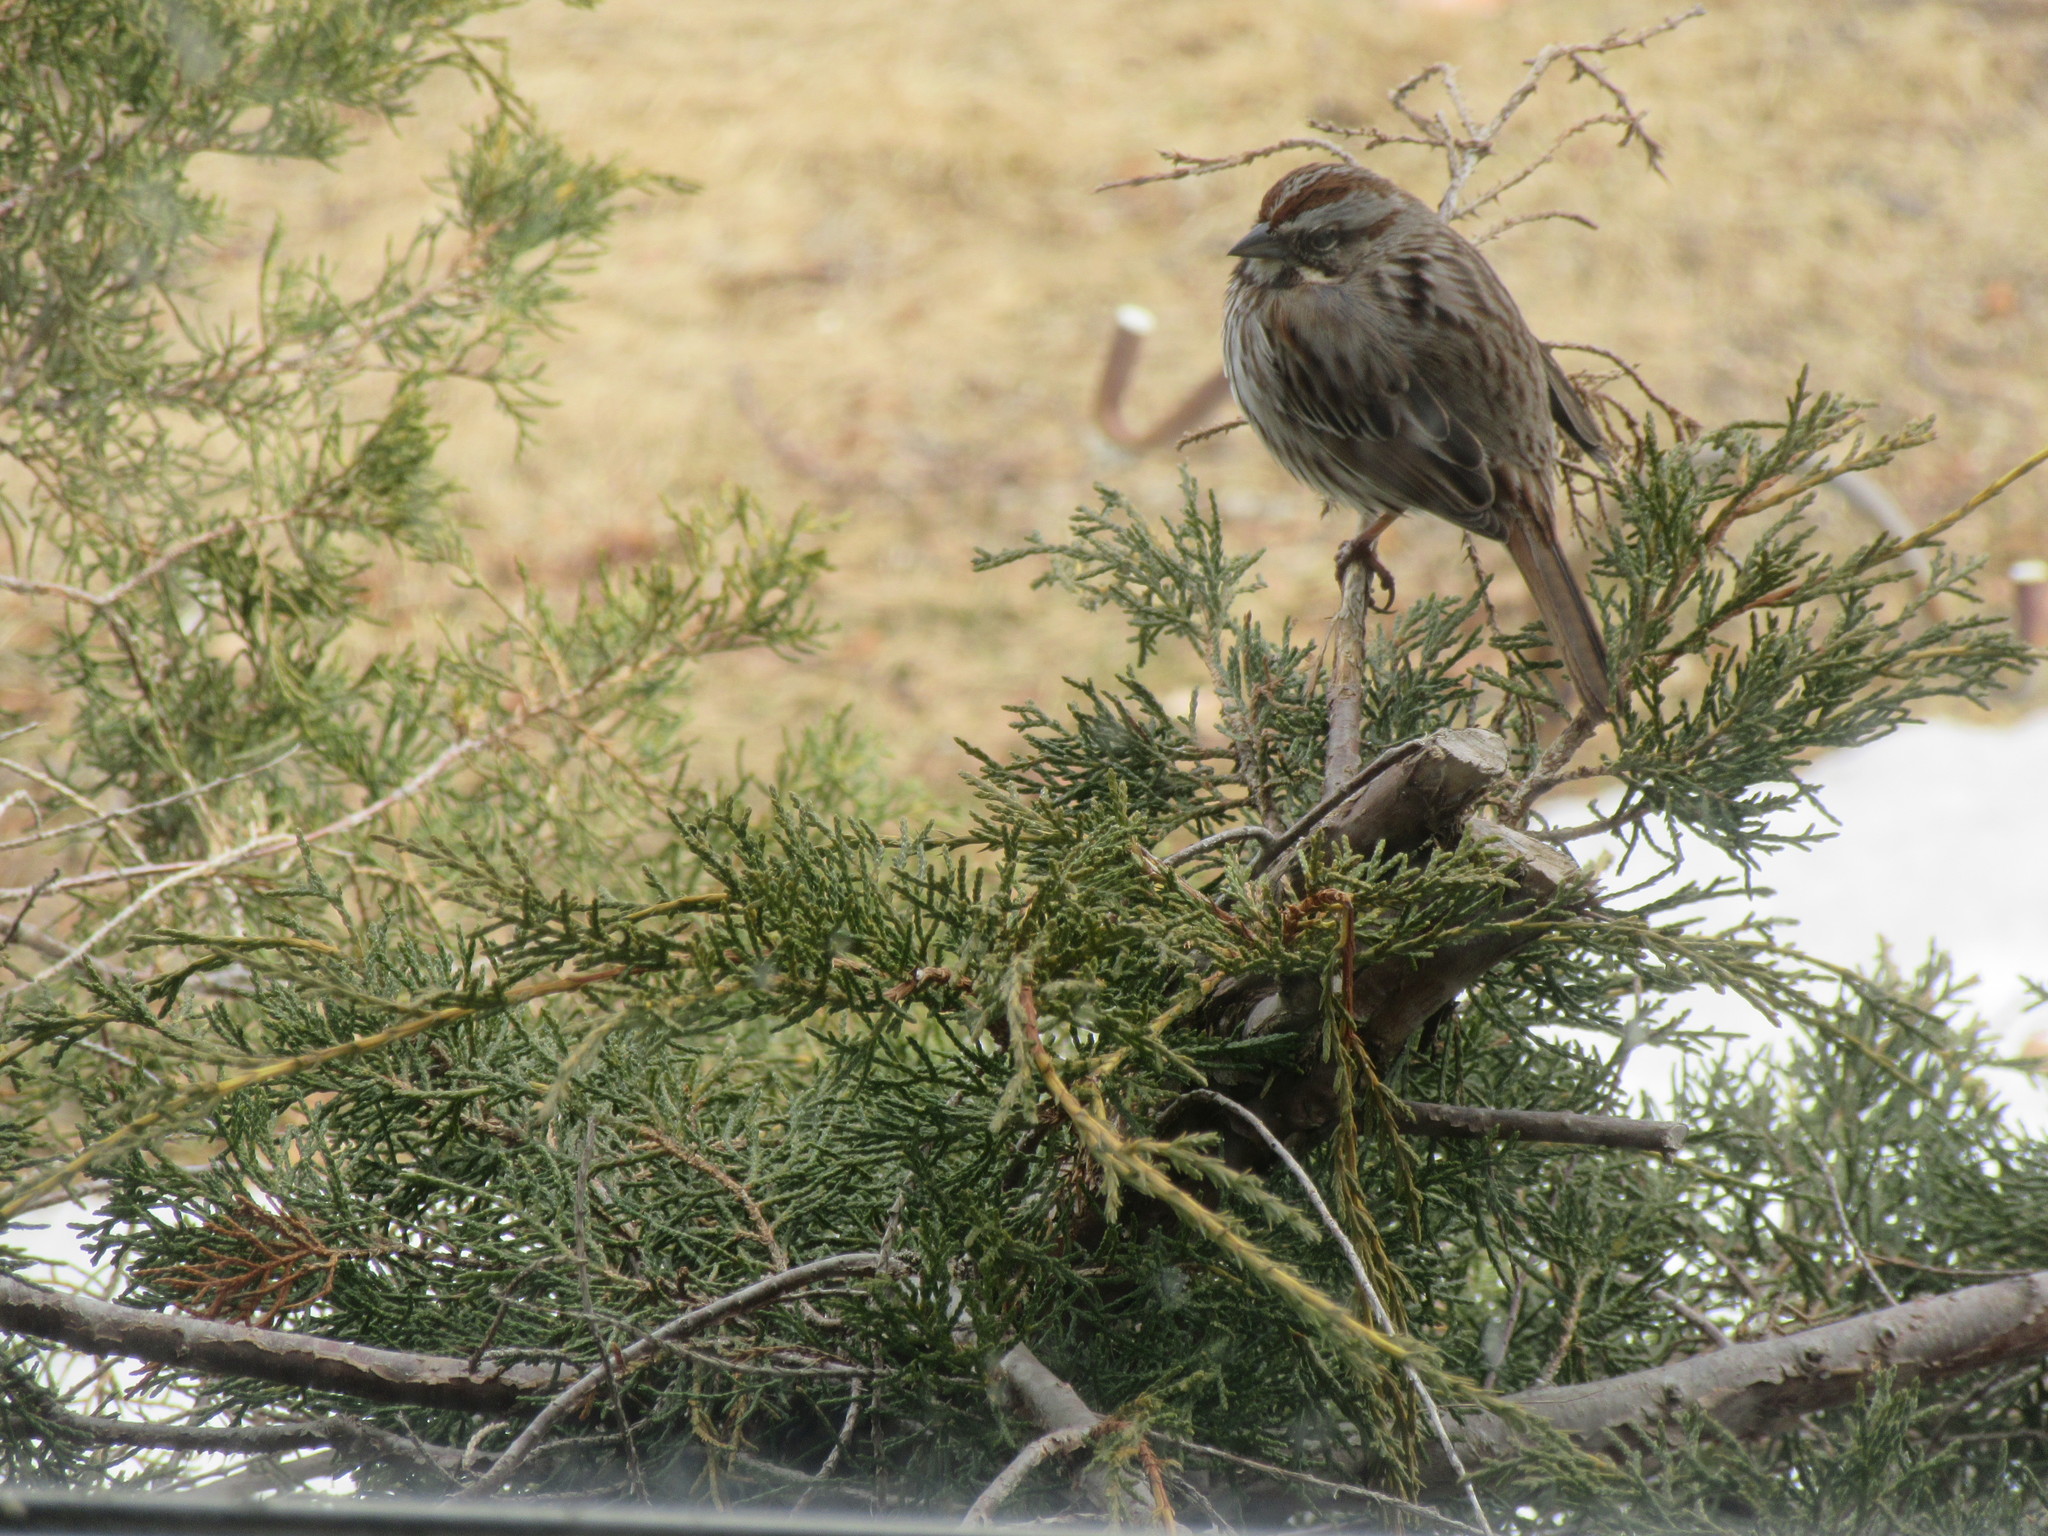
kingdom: Animalia
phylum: Chordata
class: Aves
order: Passeriformes
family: Passerellidae
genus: Melospiza
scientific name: Melospiza melodia
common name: Song sparrow
